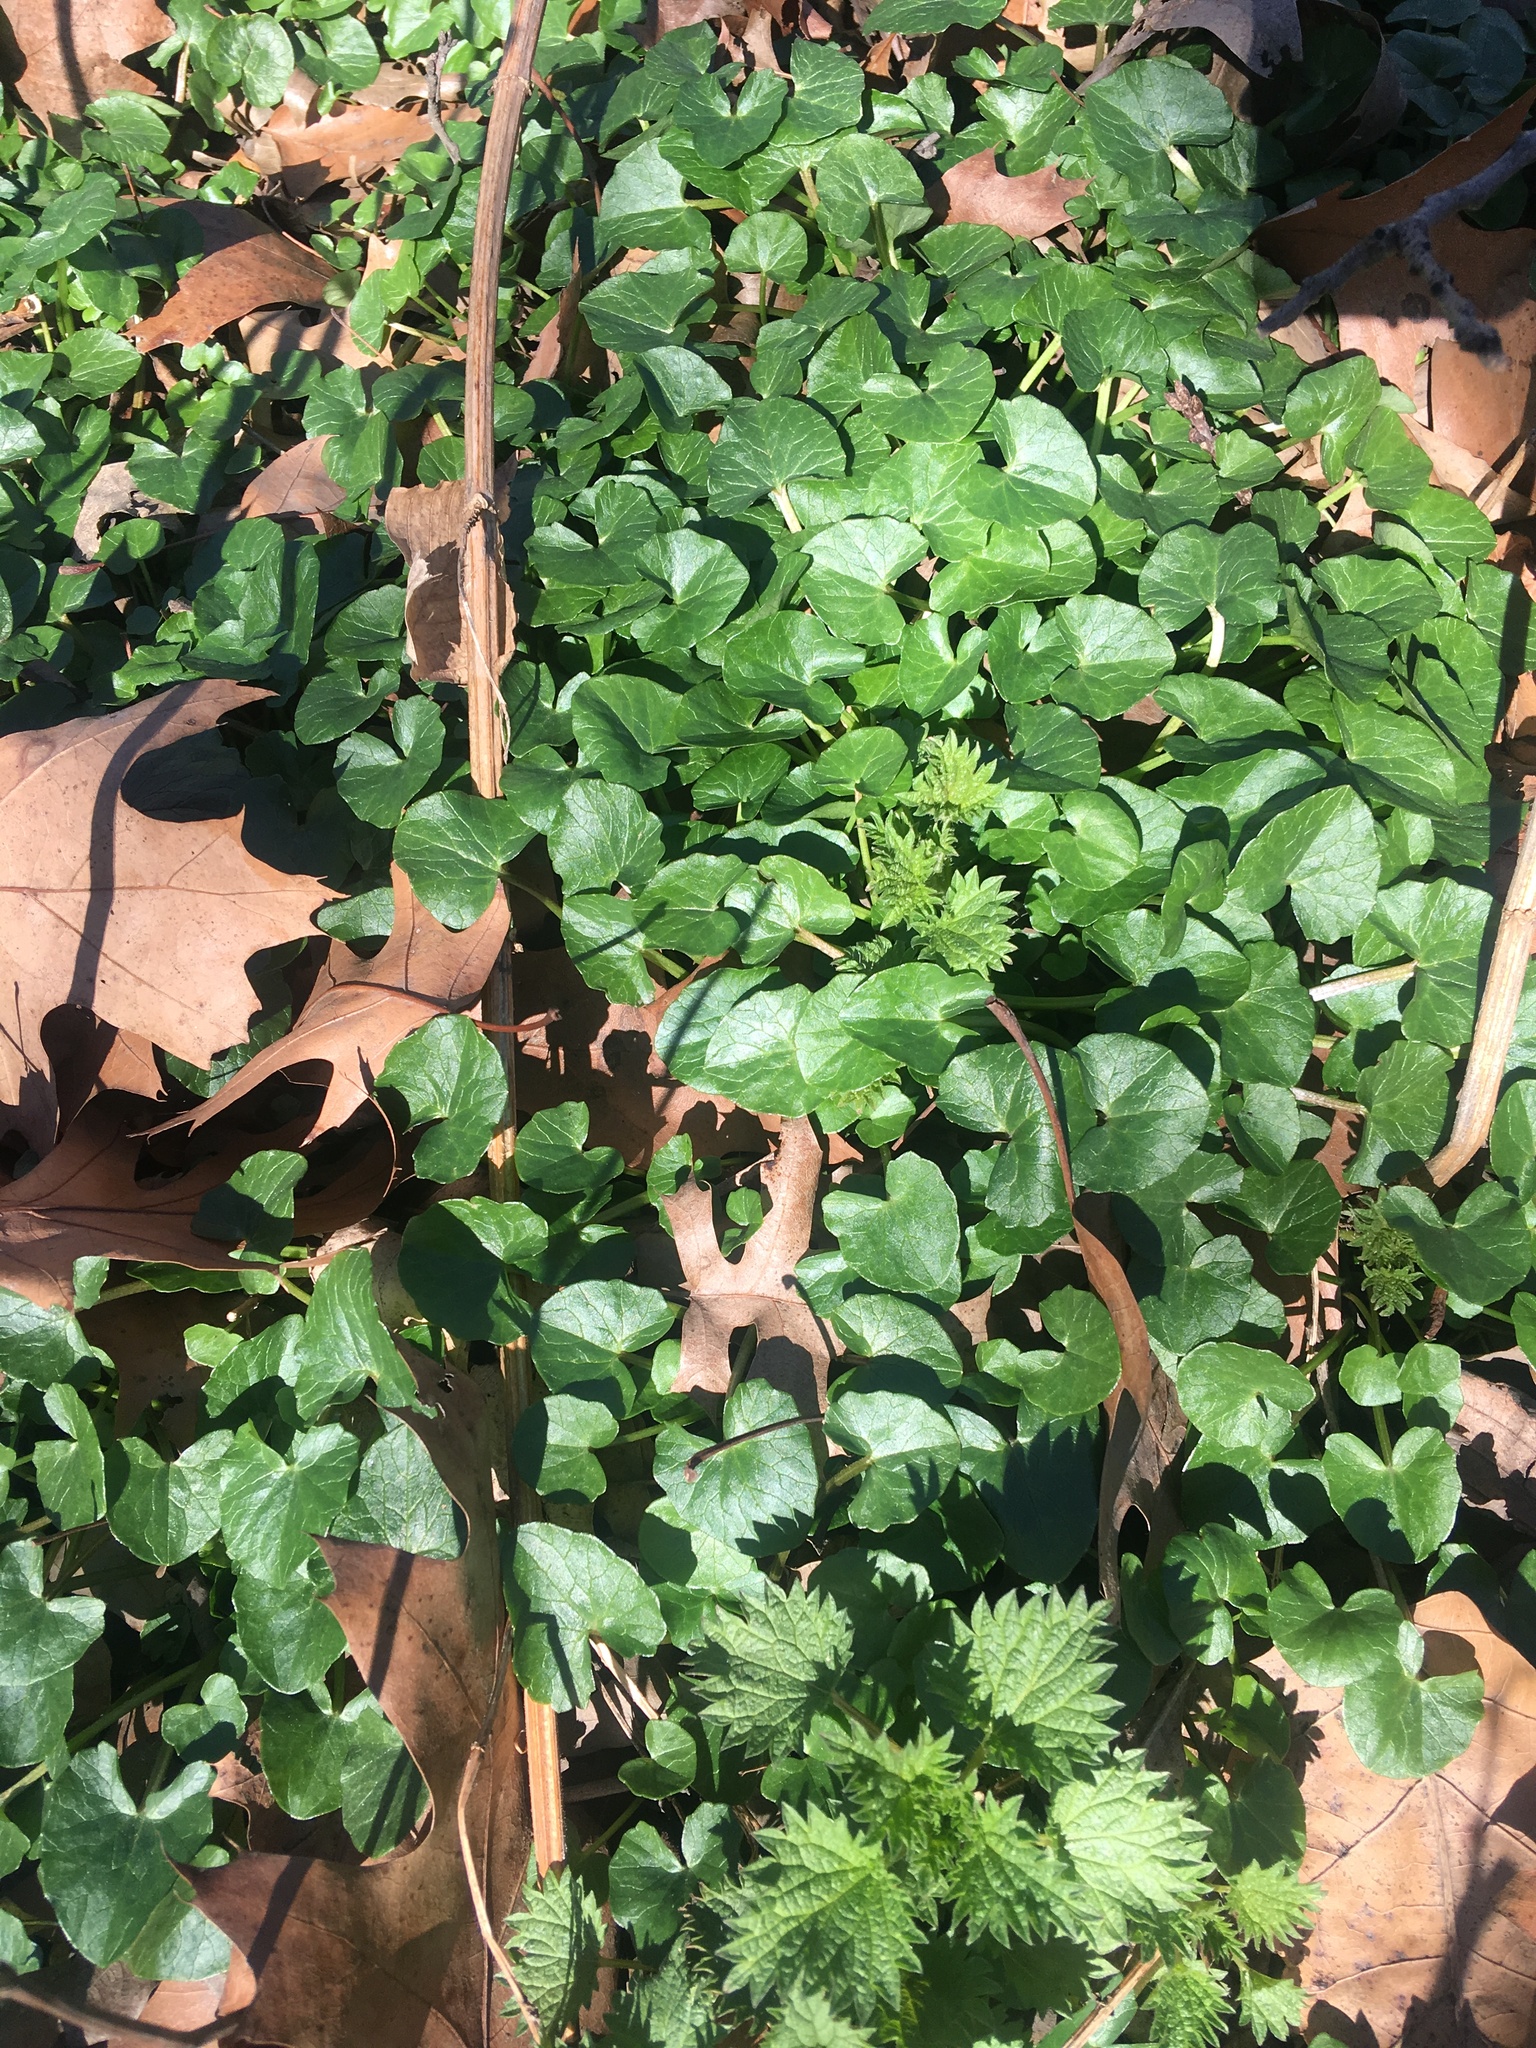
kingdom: Plantae
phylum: Tracheophyta
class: Magnoliopsida
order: Ranunculales
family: Ranunculaceae
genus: Ficaria
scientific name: Ficaria verna
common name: Lesser celandine
